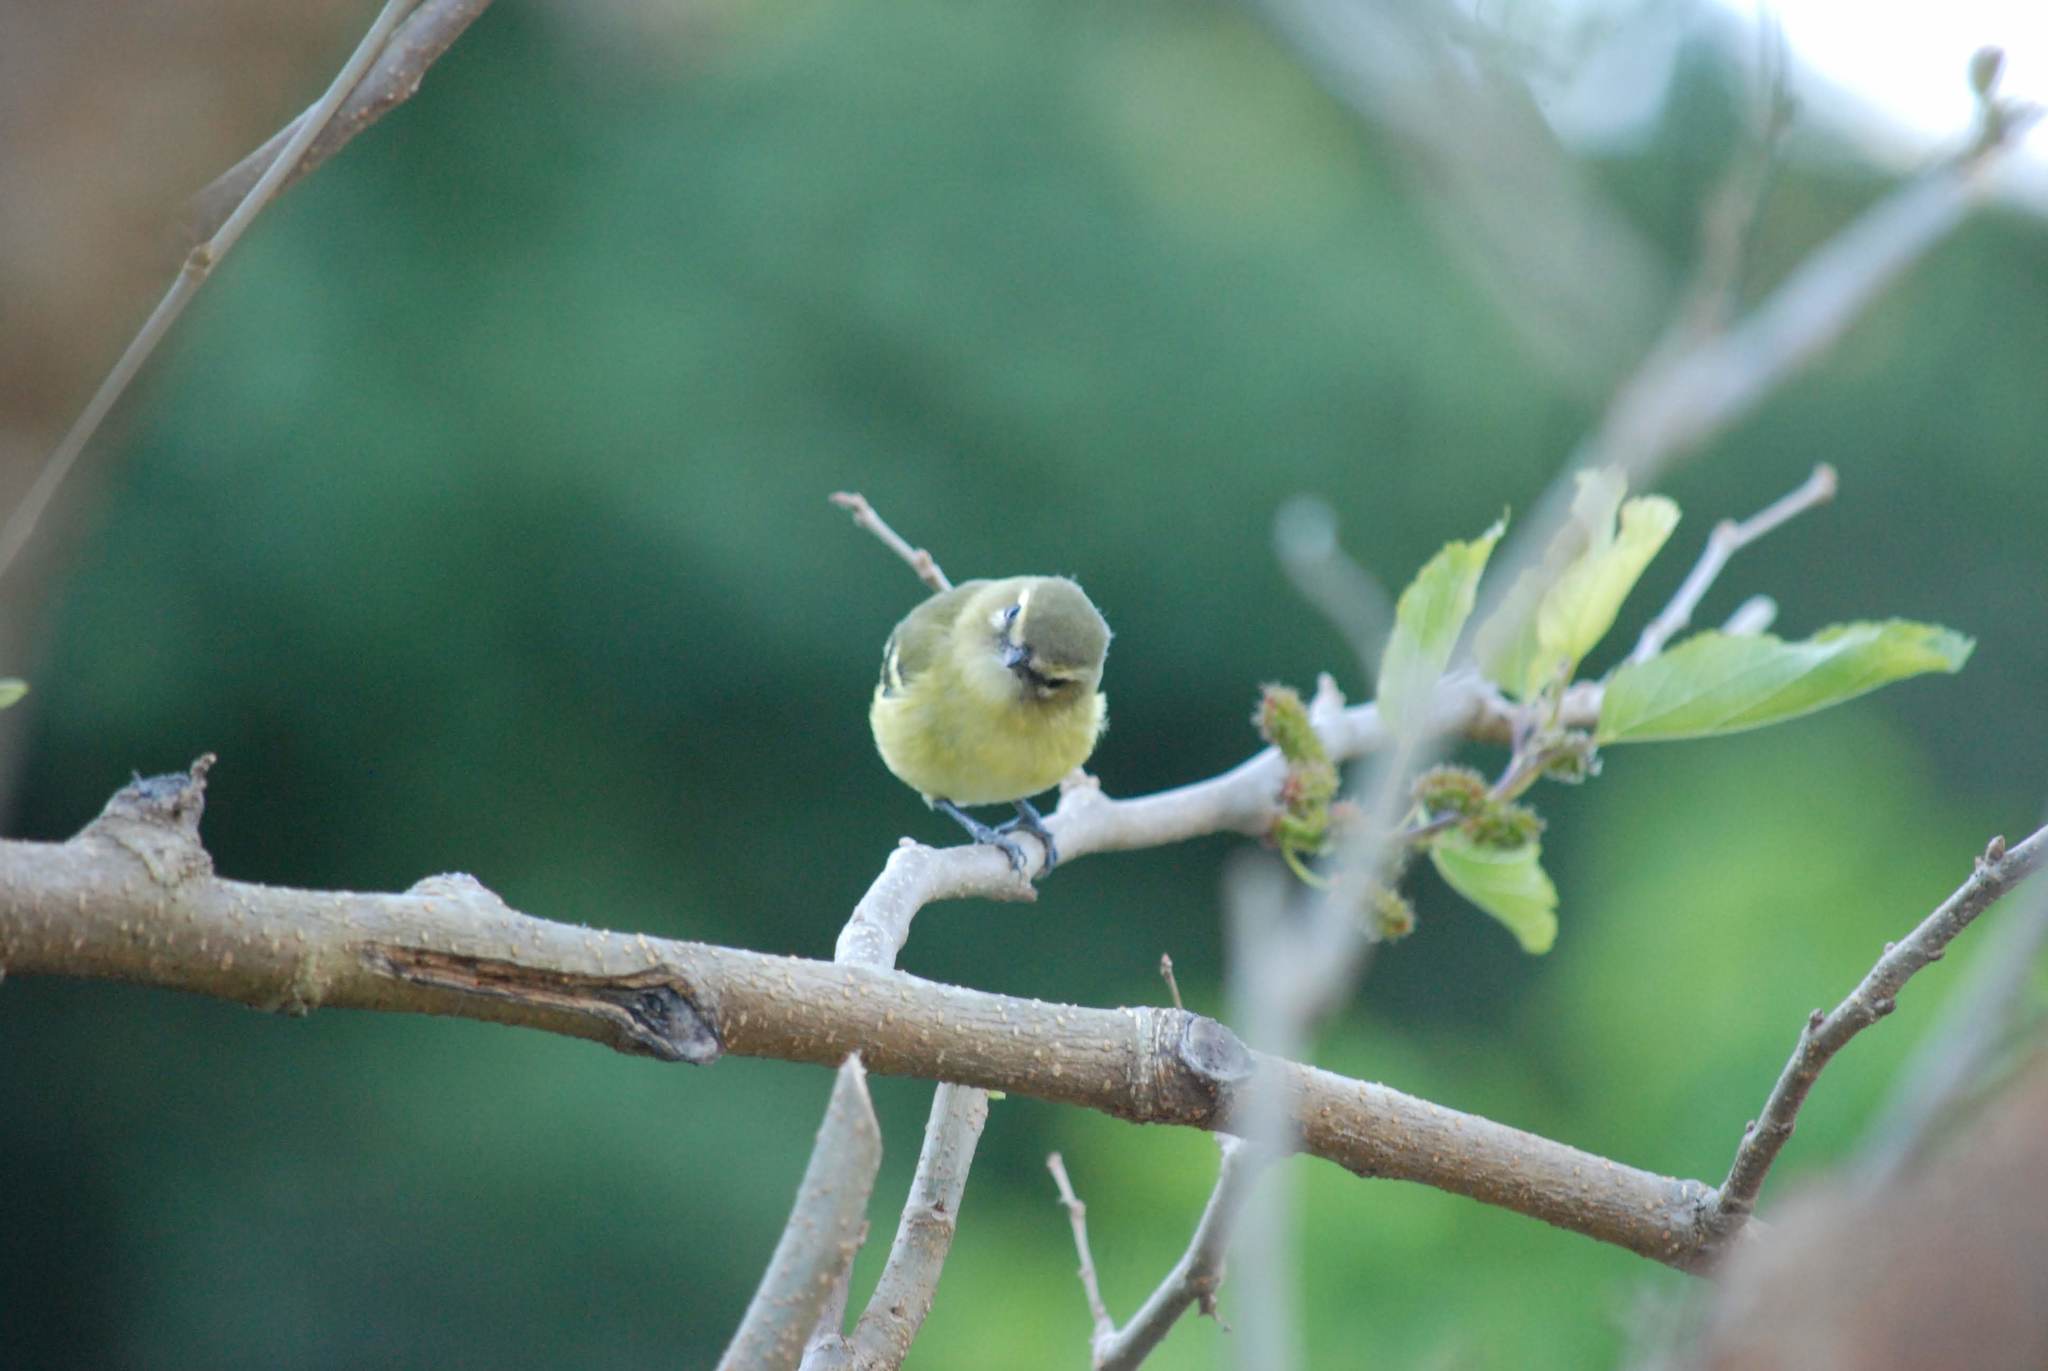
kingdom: Animalia
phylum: Chordata
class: Aves
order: Passeriformes
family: Vireonidae
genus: Vireo
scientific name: Vireo carmioli
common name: Yellow-winged vireo
